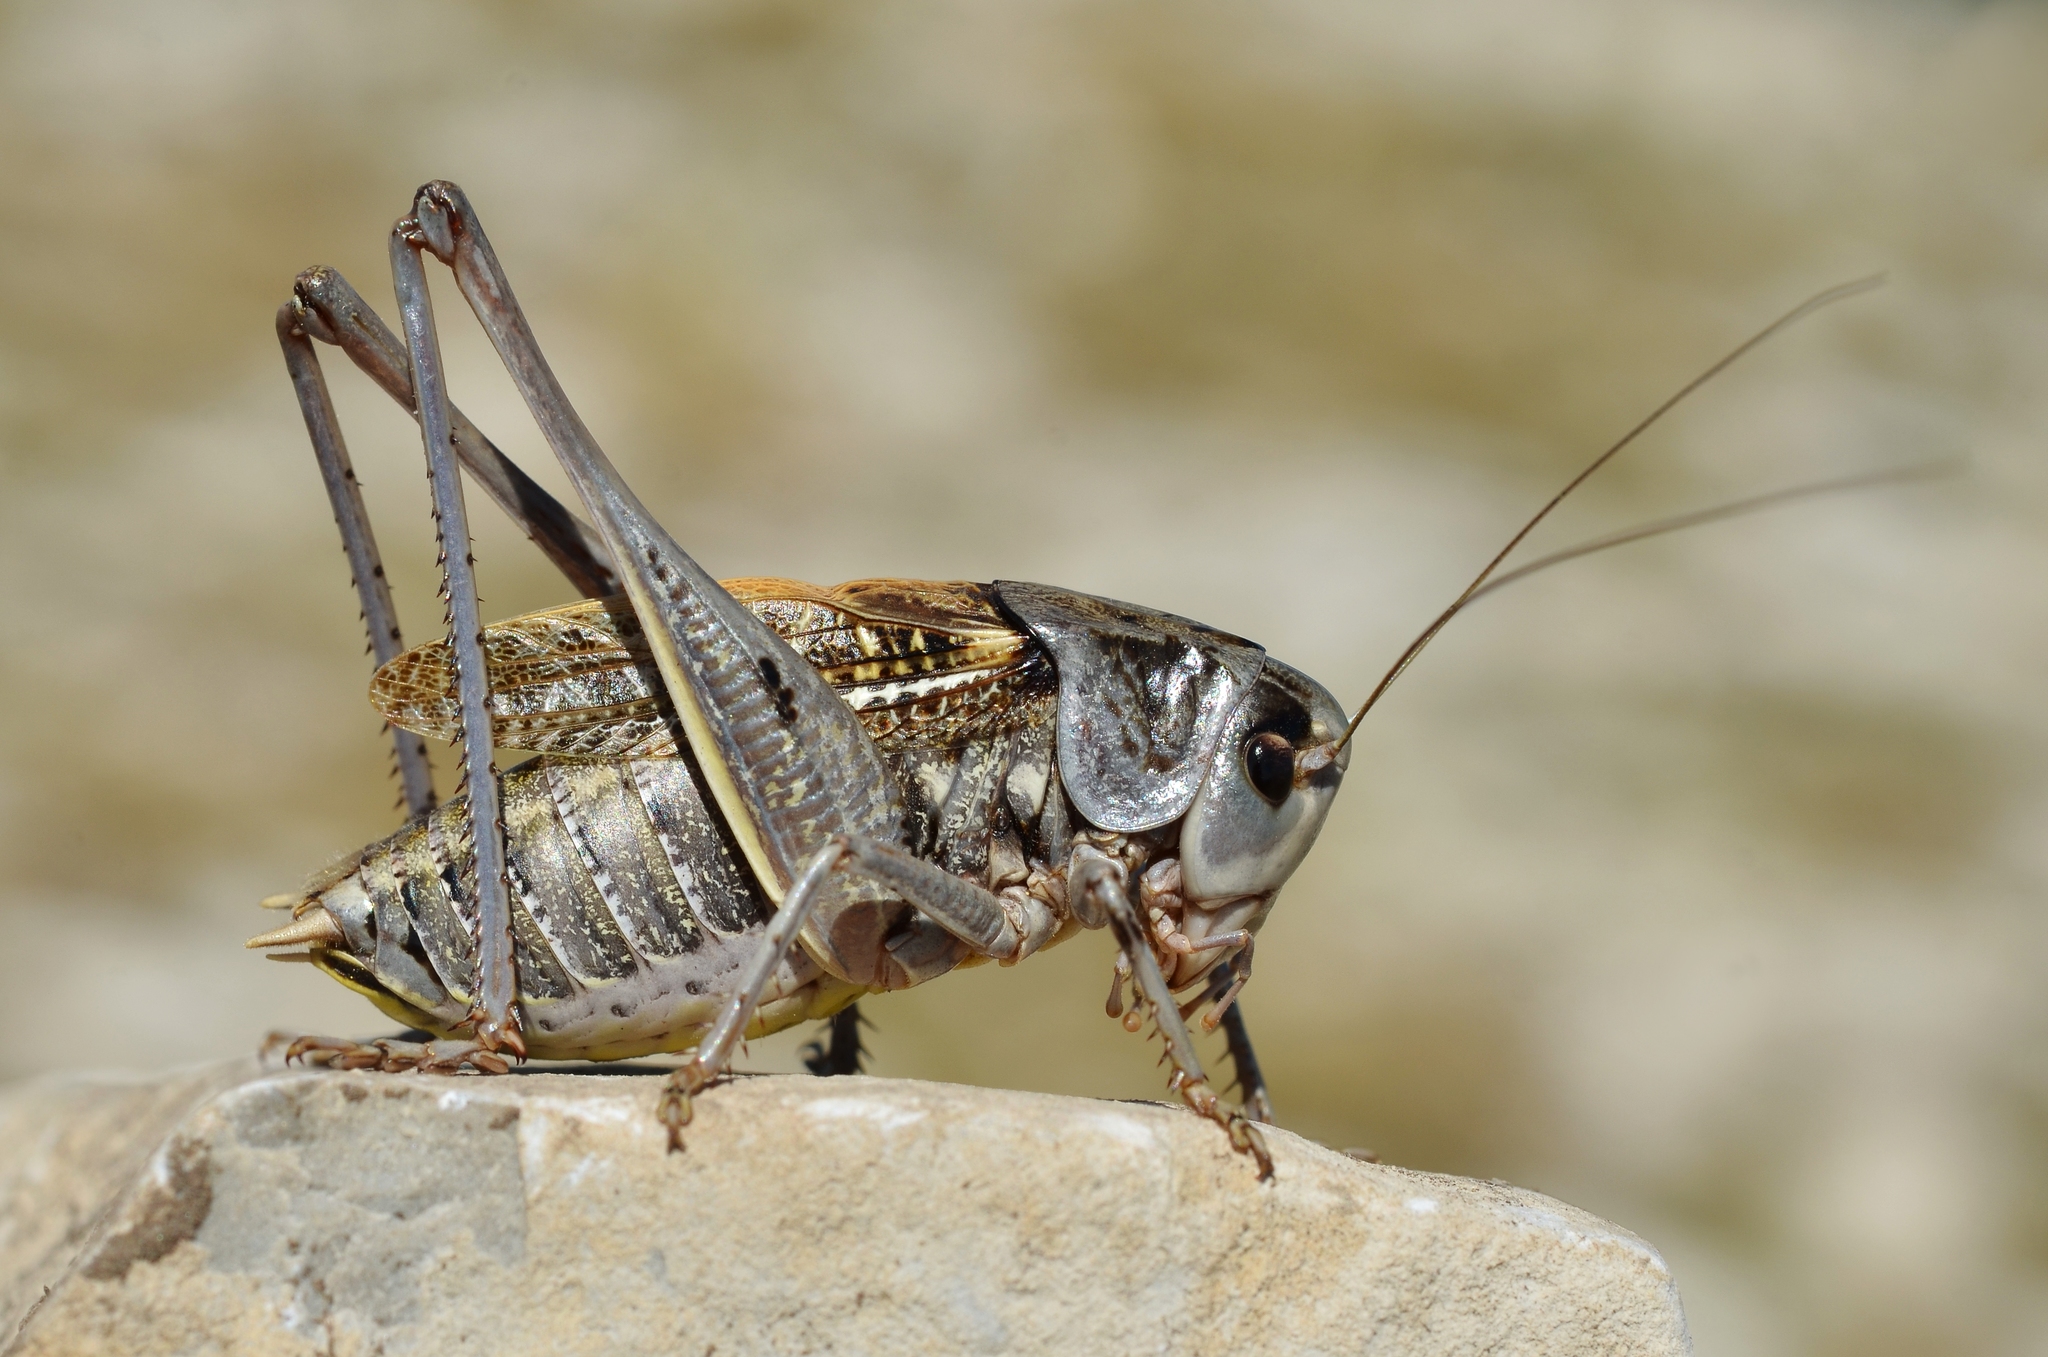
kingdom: Animalia
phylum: Arthropoda
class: Insecta
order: Orthoptera
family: Tettigoniidae
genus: Decticus
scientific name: Decticus verrucivorus
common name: Wart-biter
